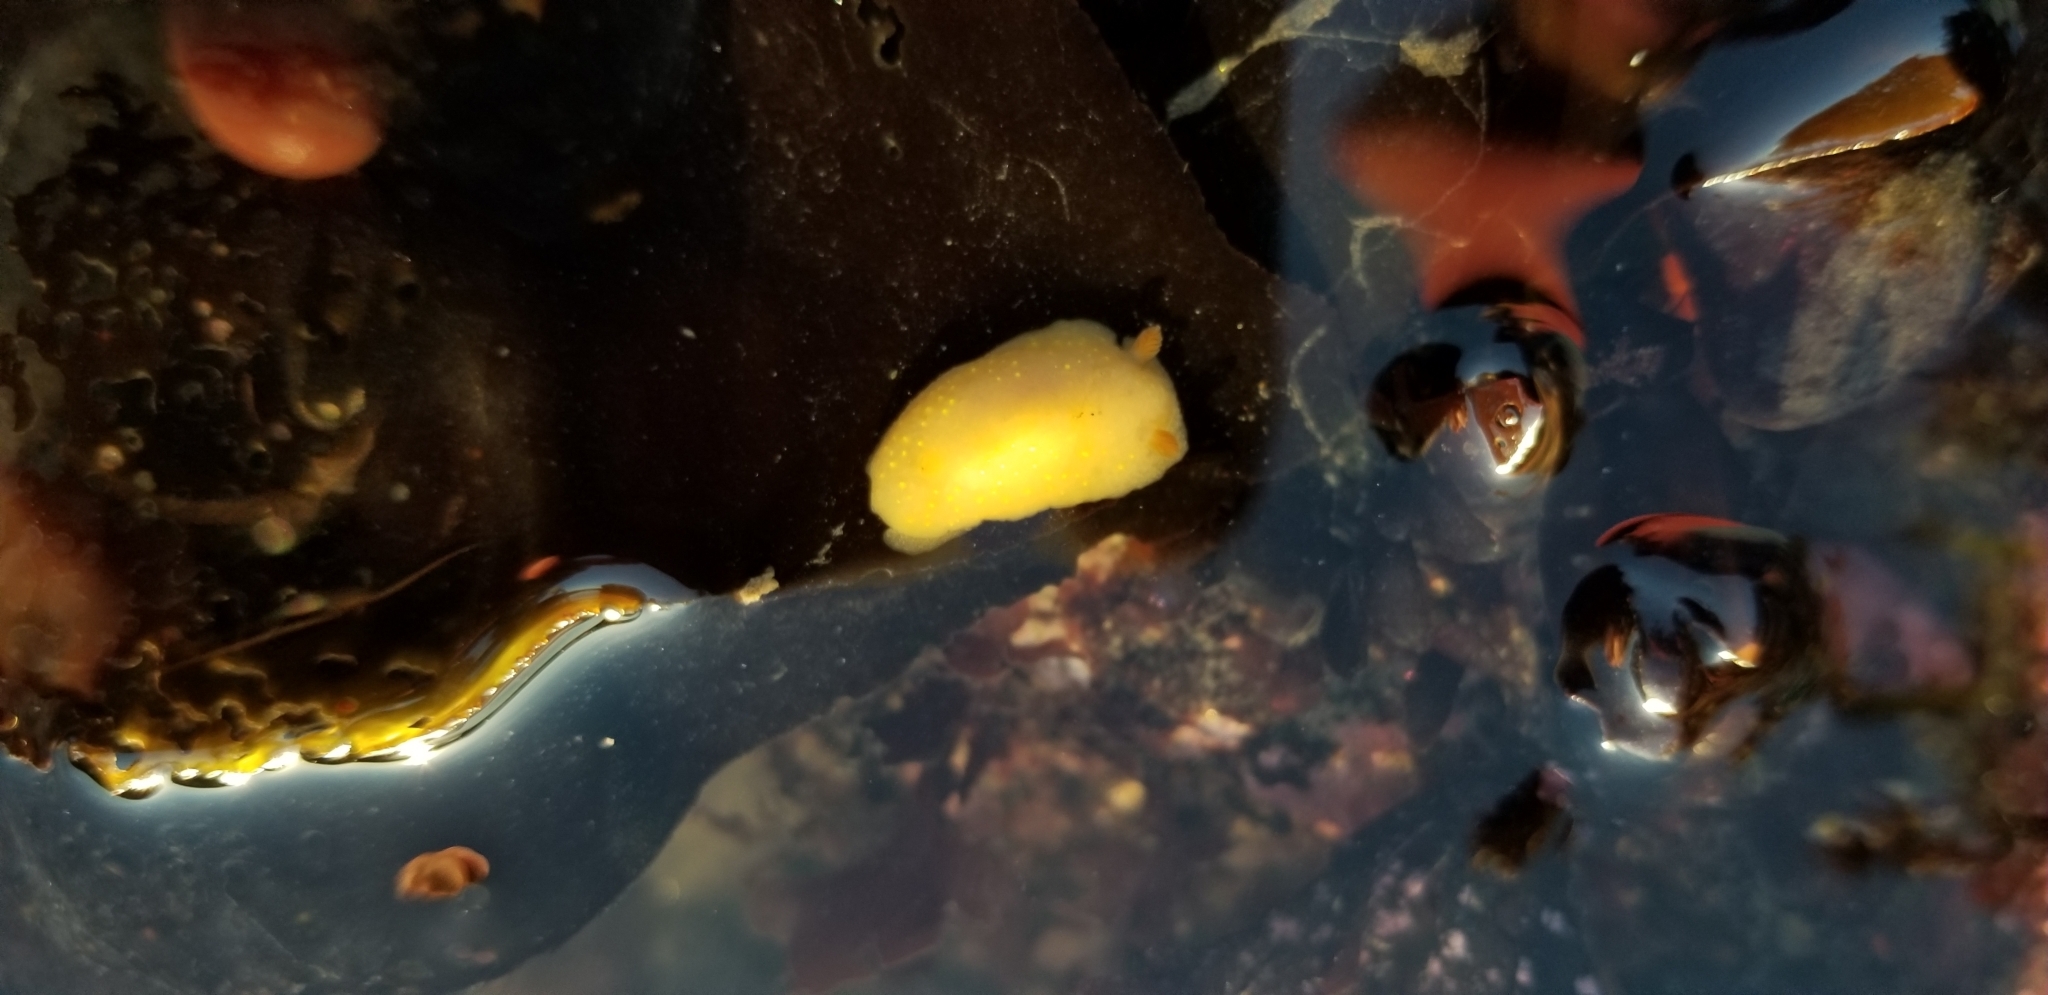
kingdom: Animalia
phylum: Mollusca
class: Gastropoda
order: Nudibranchia
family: Cadlinidae
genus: Cadlina
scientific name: Cadlina modesta
